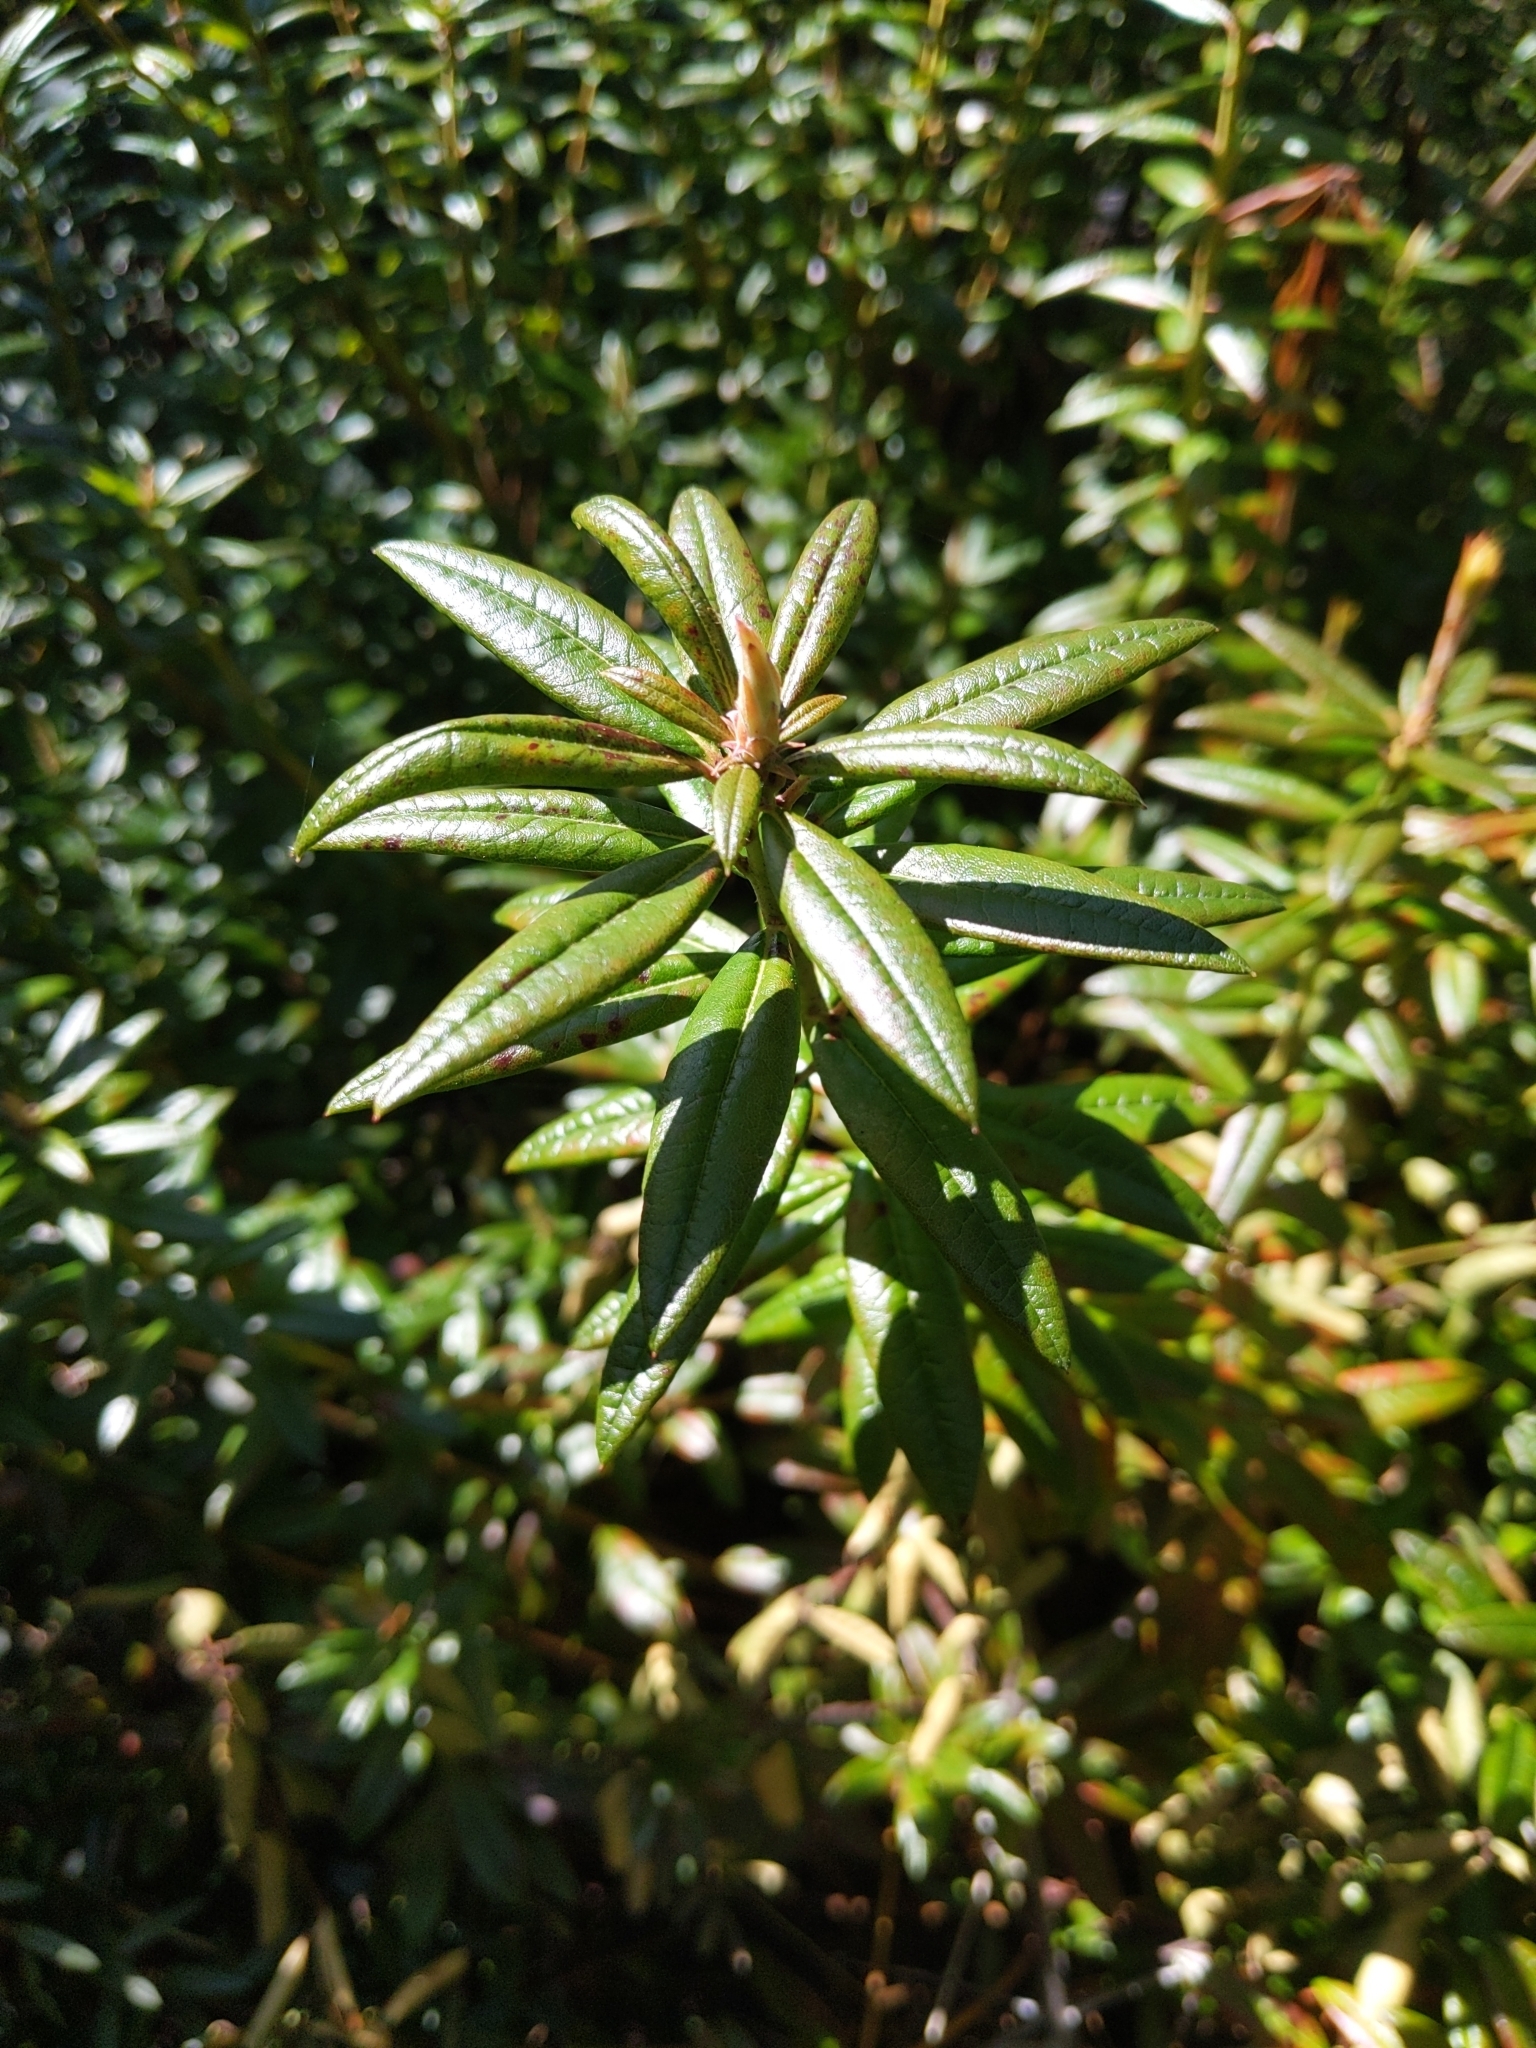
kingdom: Plantae
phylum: Tracheophyta
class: Magnoliopsida
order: Ericales
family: Ericaceae
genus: Rhododendron
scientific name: Rhododendron columbianum
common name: Western labrador tea
